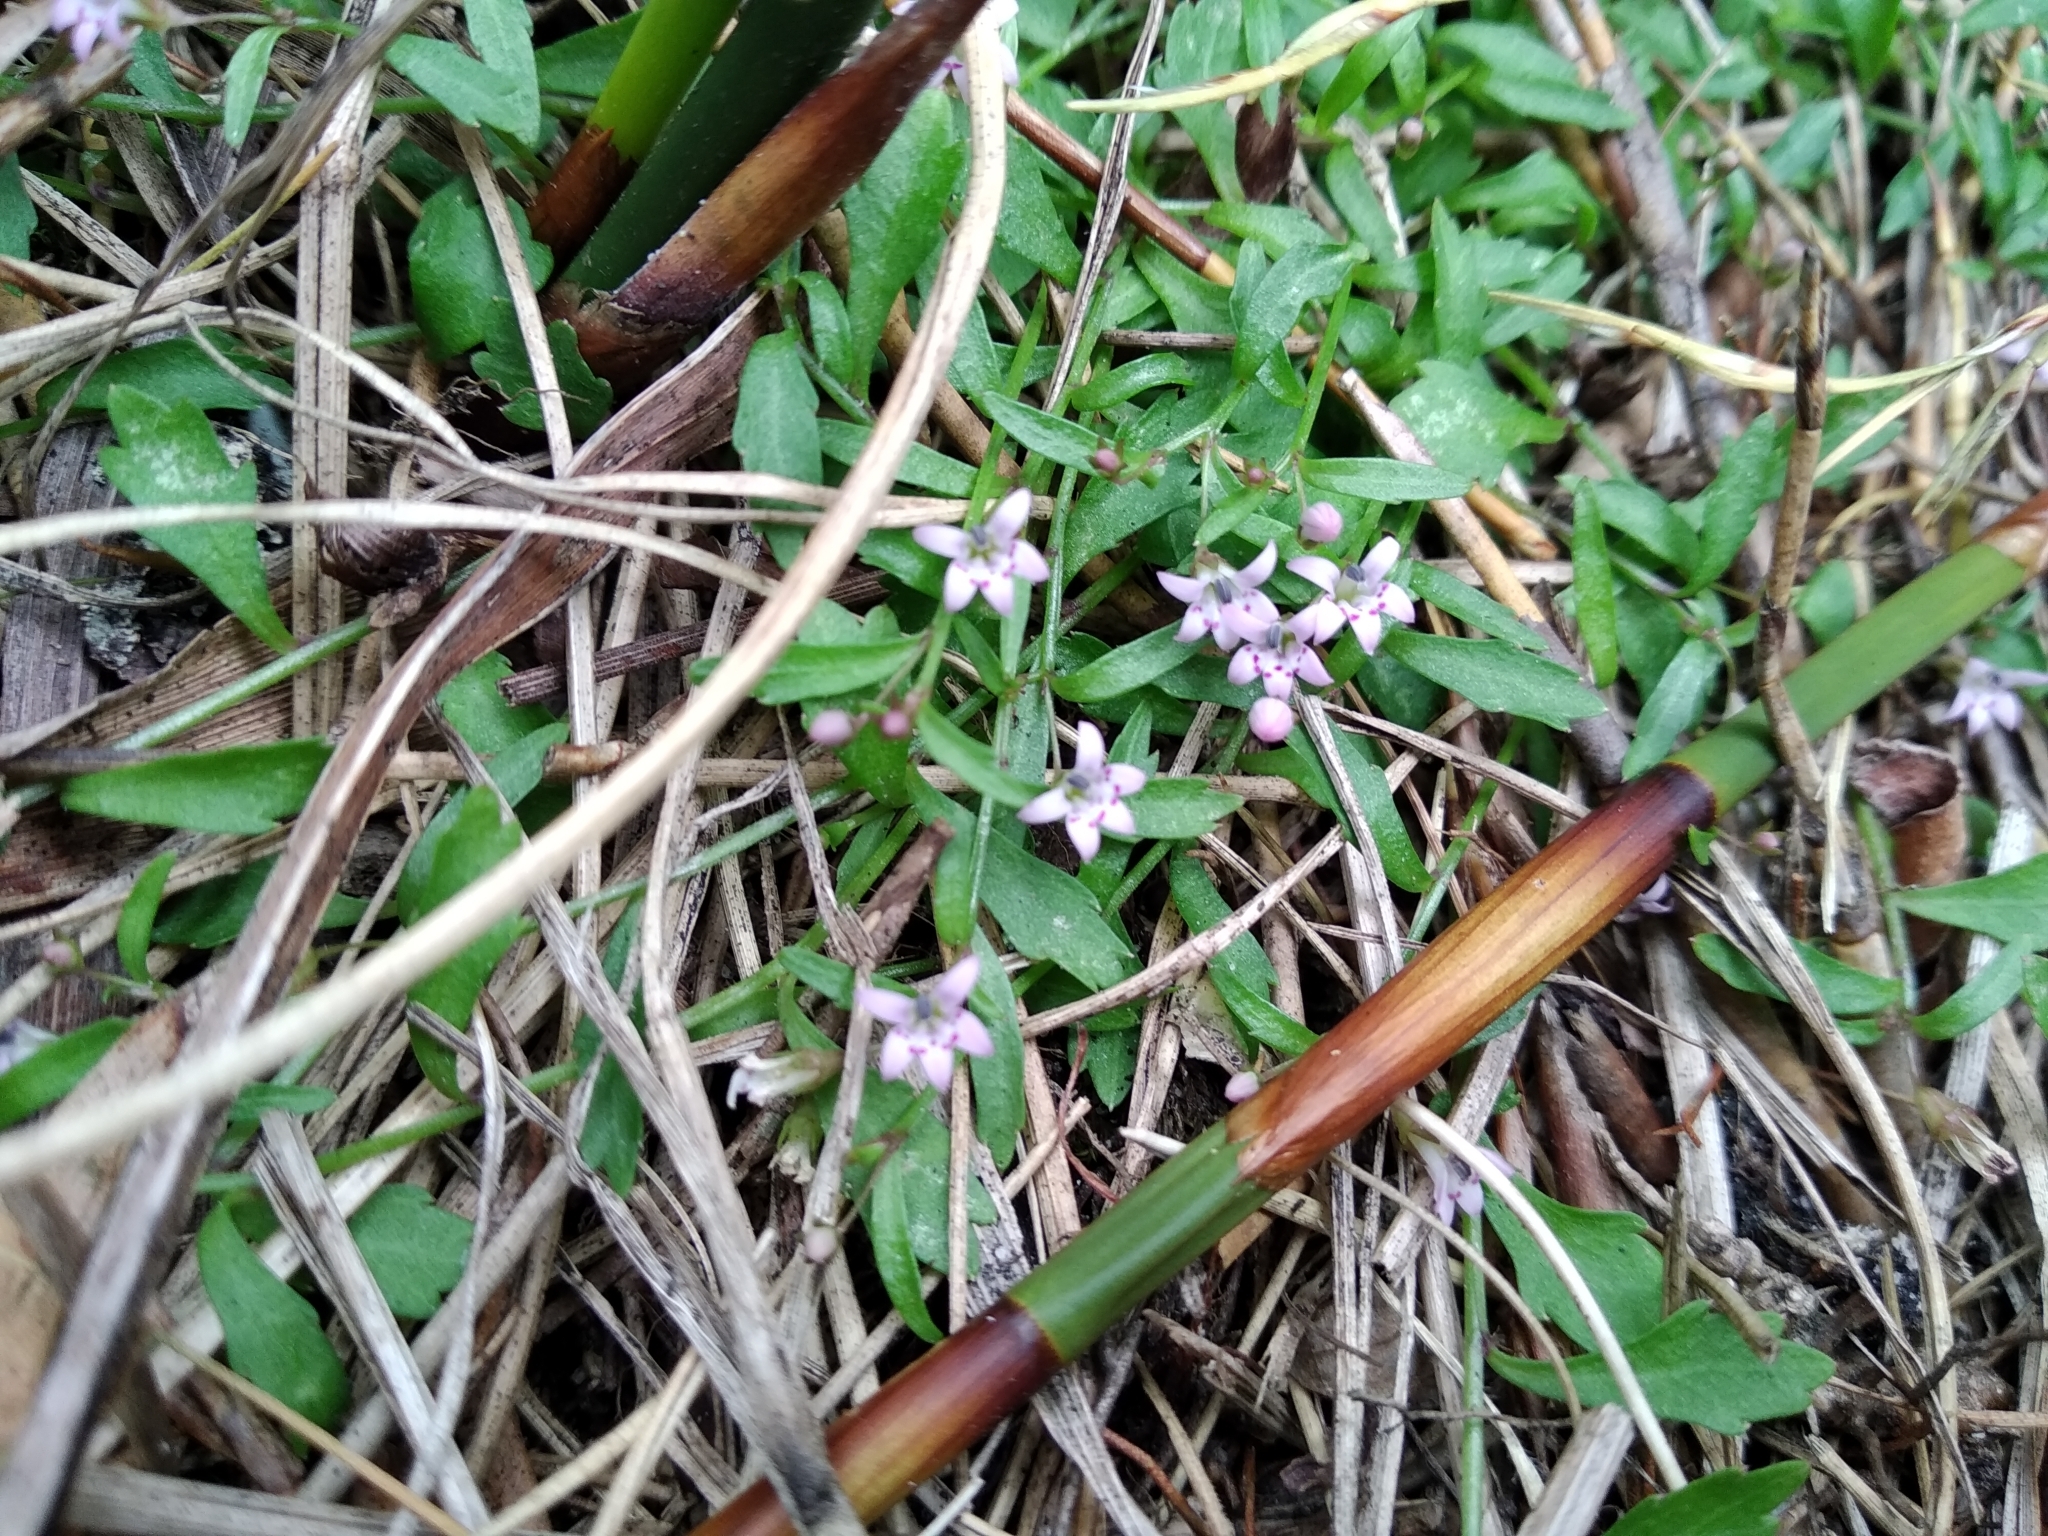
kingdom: Plantae
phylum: Tracheophyta
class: Magnoliopsida
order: Asterales
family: Campanulaceae
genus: Lobelia
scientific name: Lobelia eckloniana
